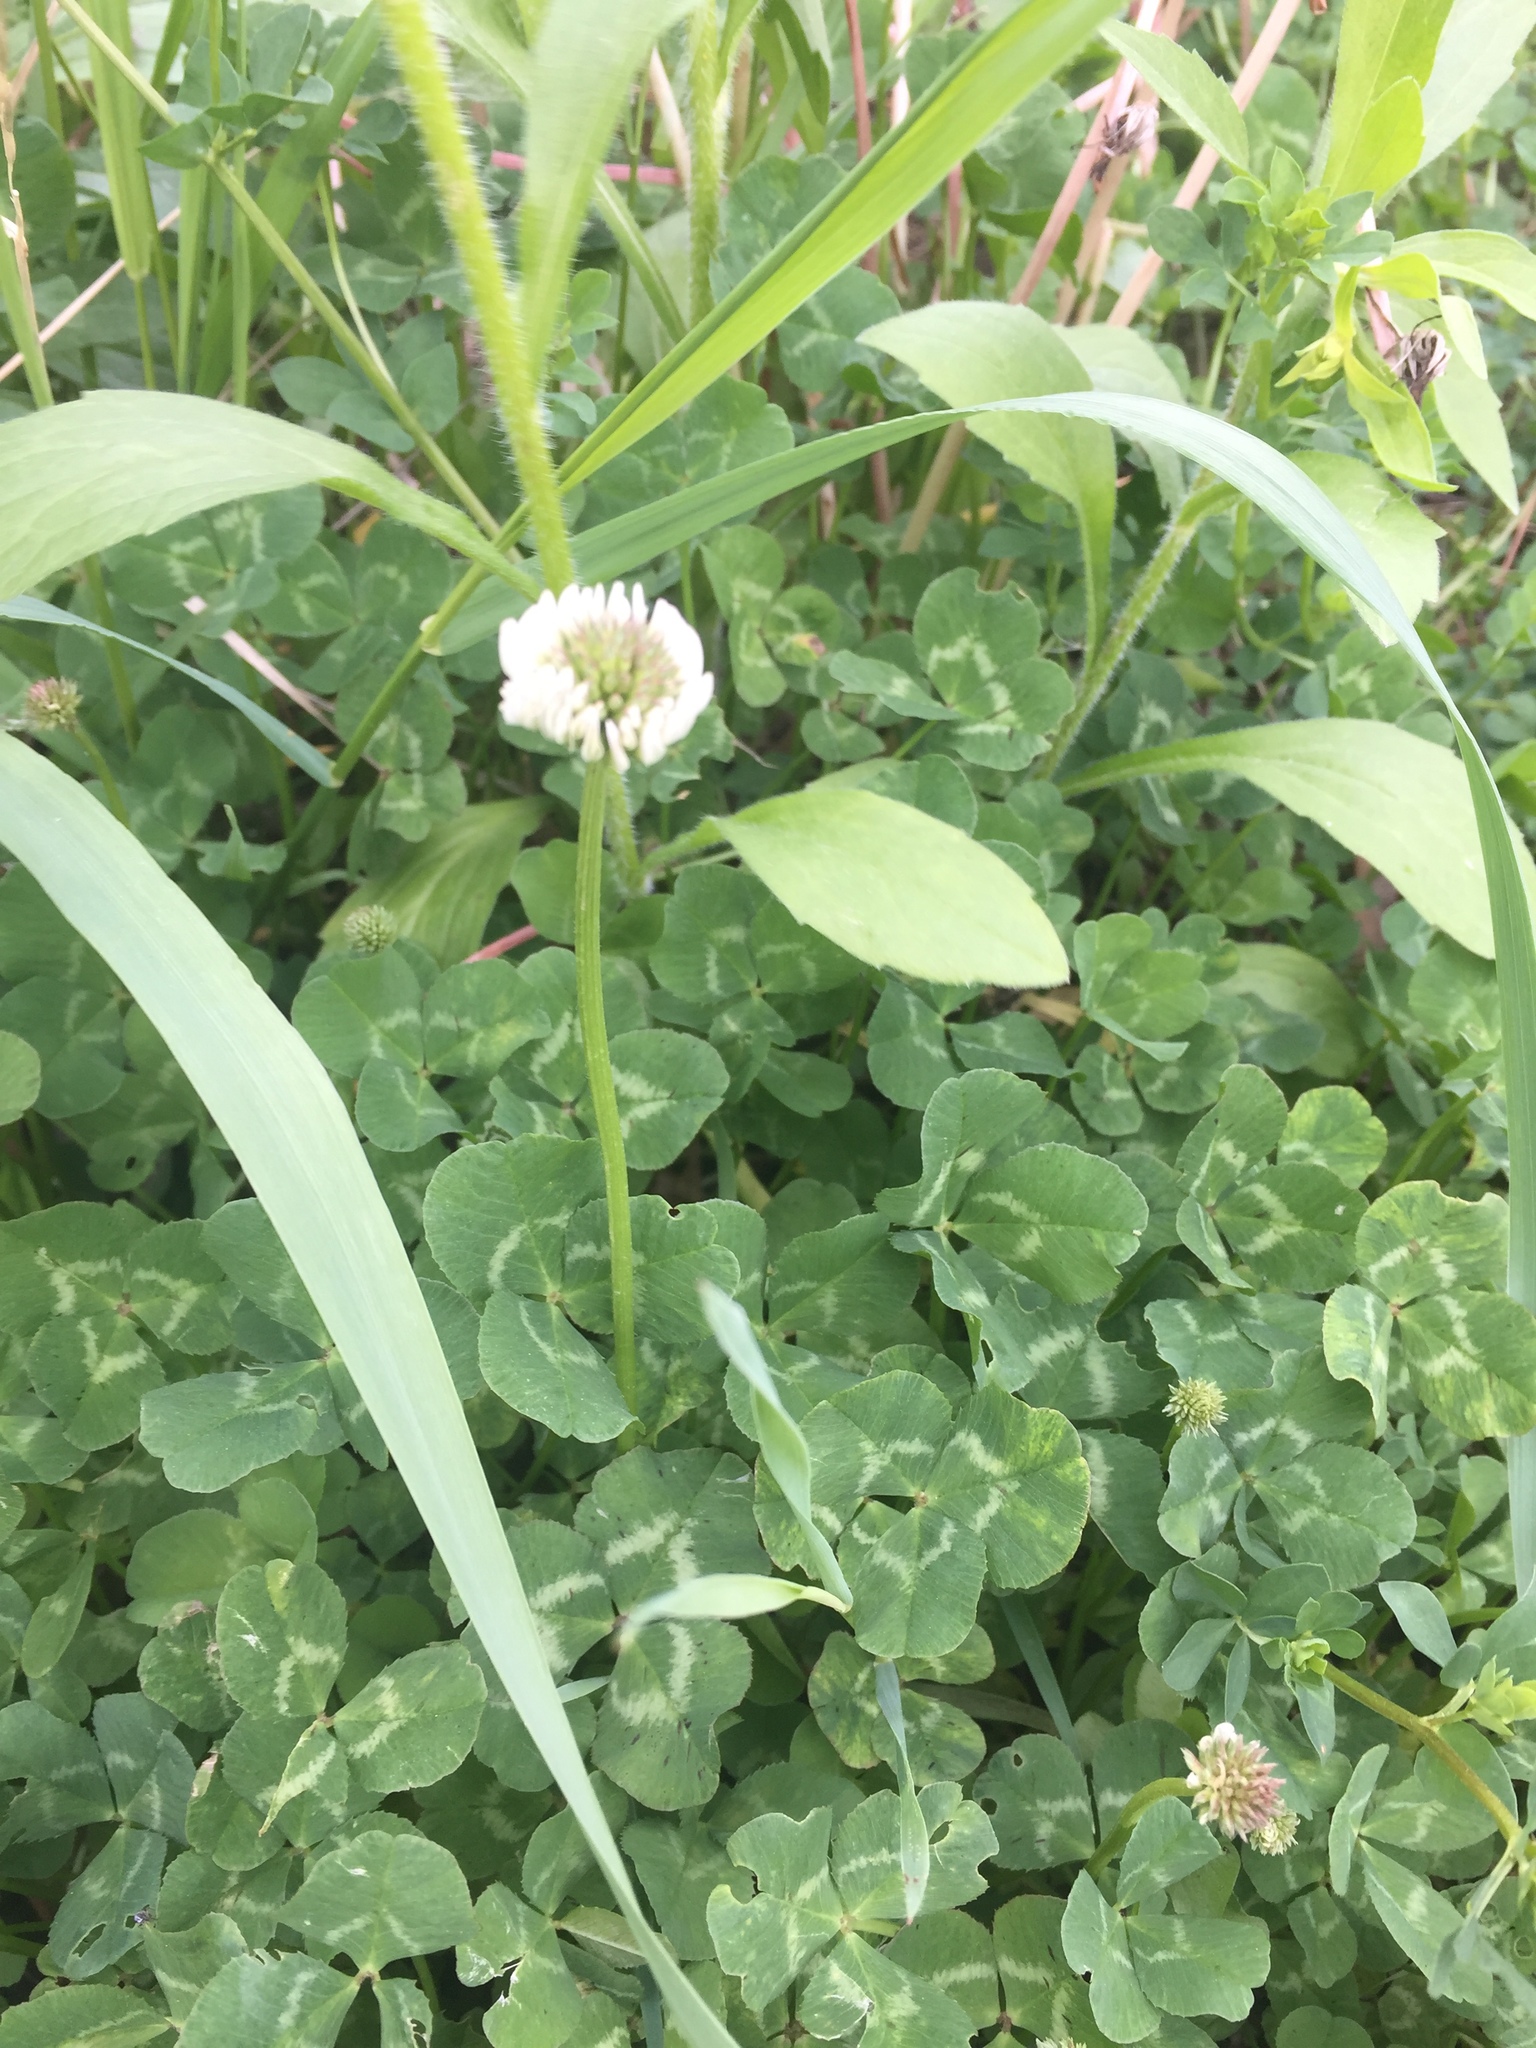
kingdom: Plantae
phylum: Tracheophyta
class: Magnoliopsida
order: Fabales
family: Fabaceae
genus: Trifolium
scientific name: Trifolium repens
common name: White clover
